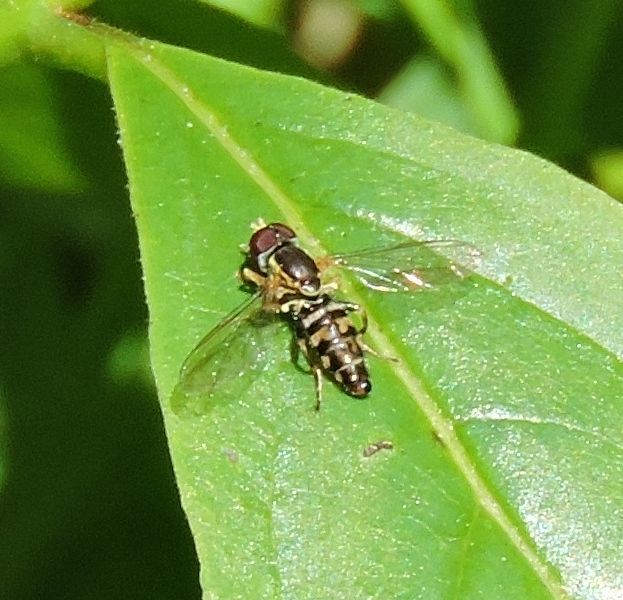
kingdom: Animalia
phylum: Arthropoda
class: Insecta
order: Diptera
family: Syrphidae
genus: Toxomerus
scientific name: Toxomerus geminatus
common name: Eastern calligrapher
